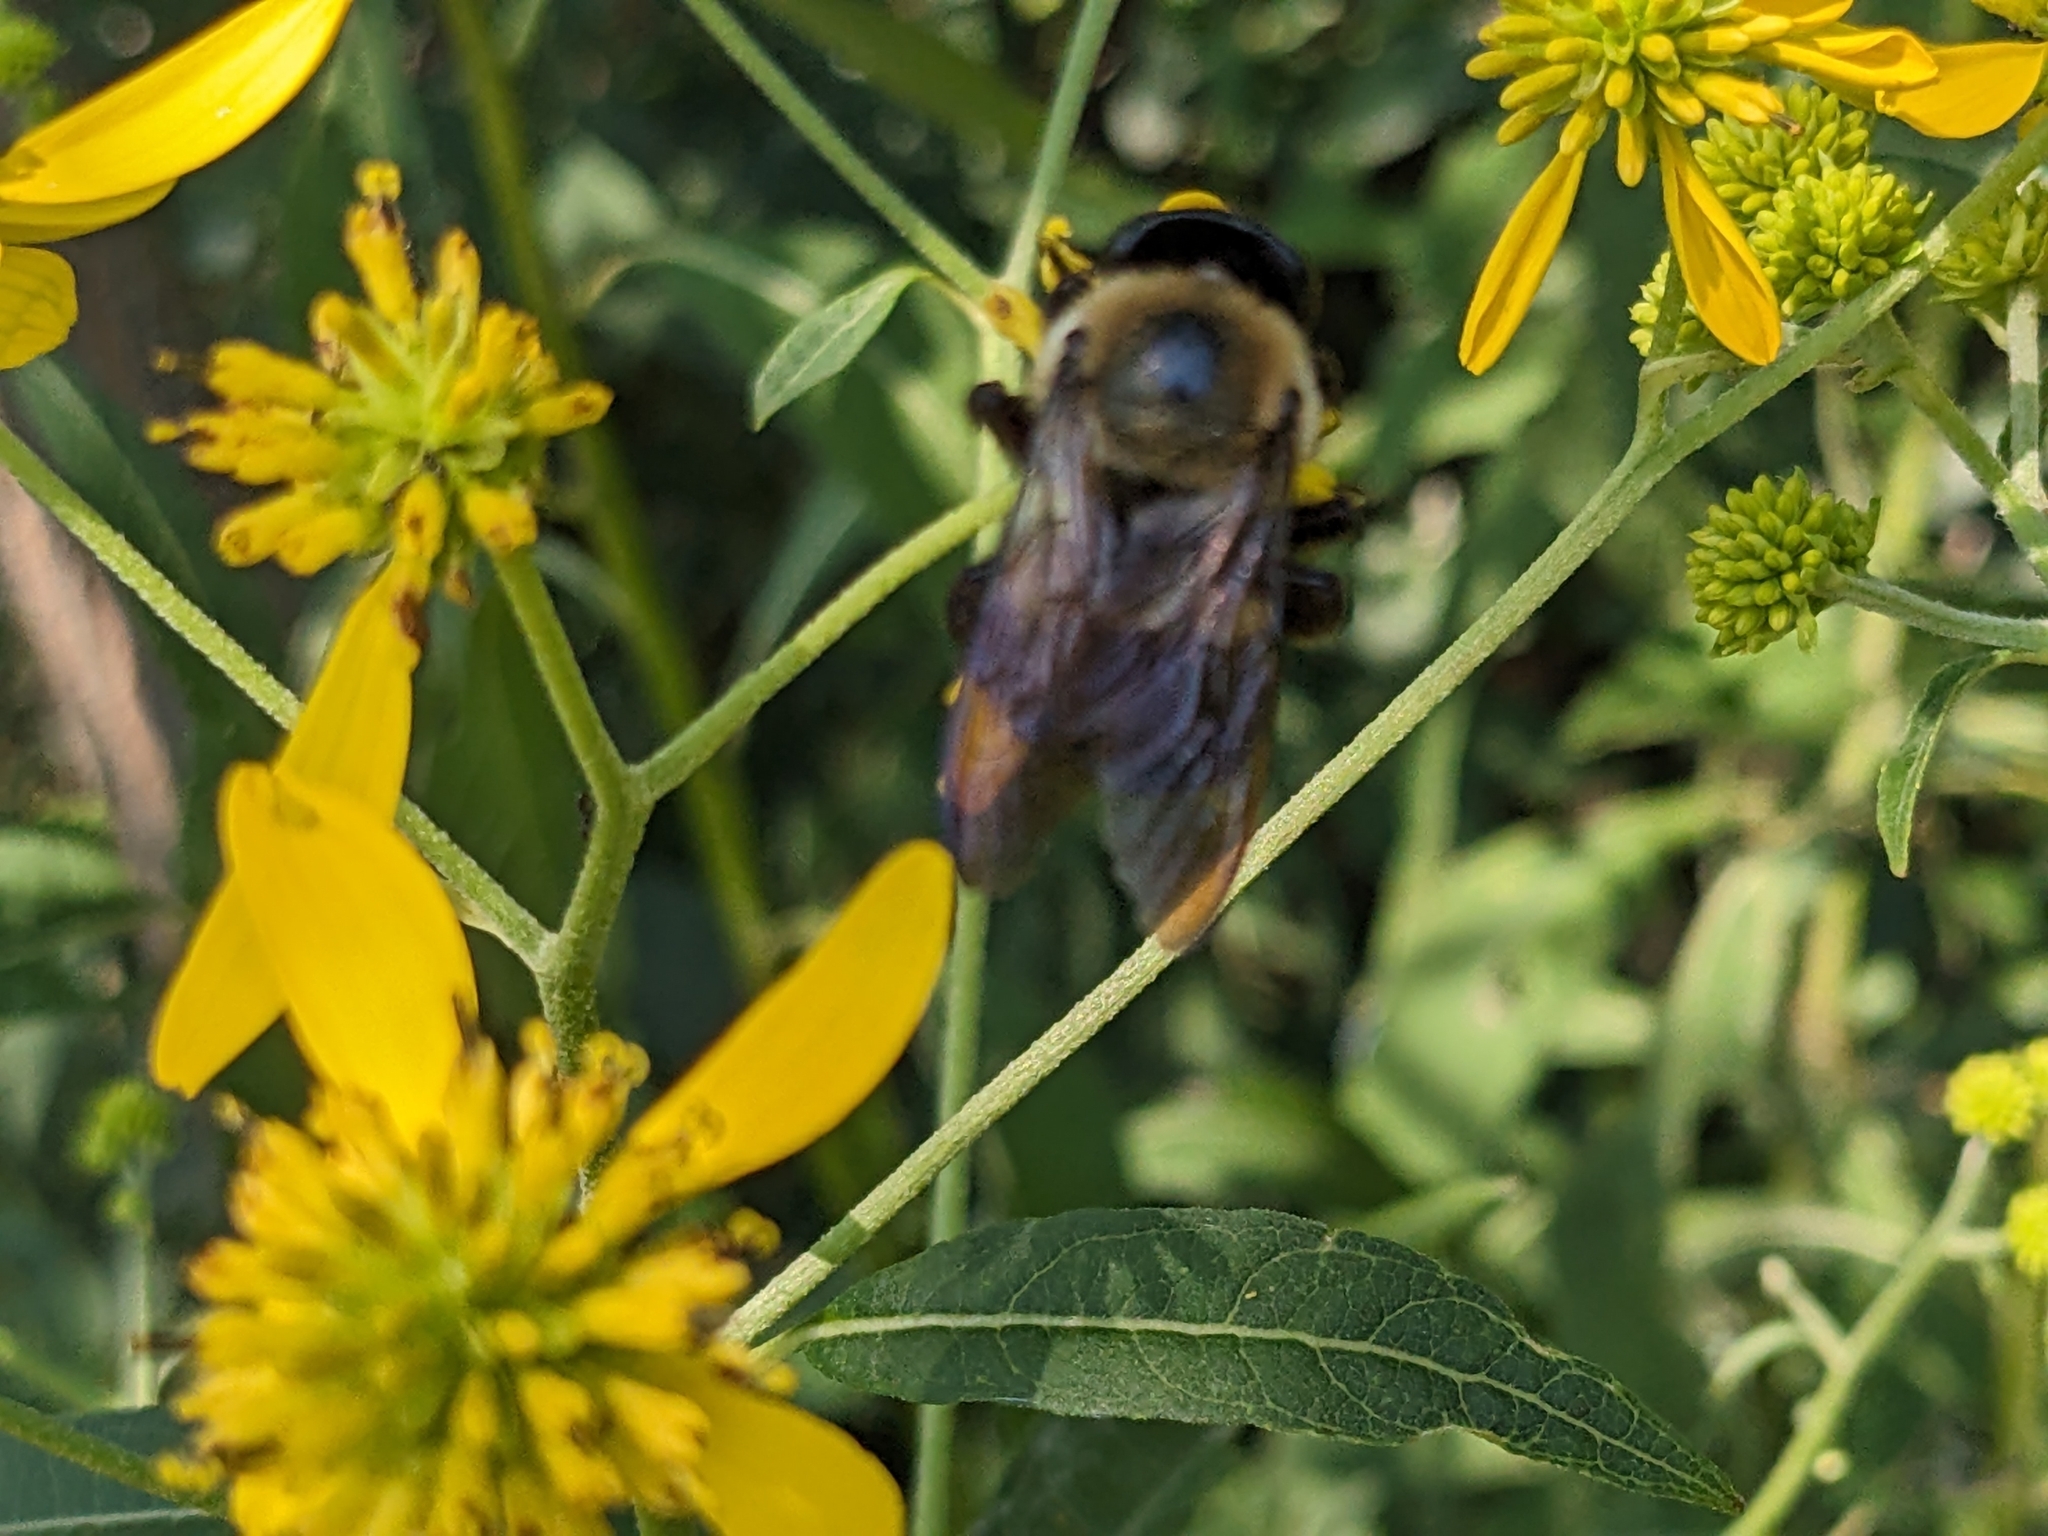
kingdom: Animalia
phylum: Arthropoda
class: Insecta
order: Hymenoptera
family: Apidae
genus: Xylocopa
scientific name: Xylocopa virginica
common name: Carpenter bee
